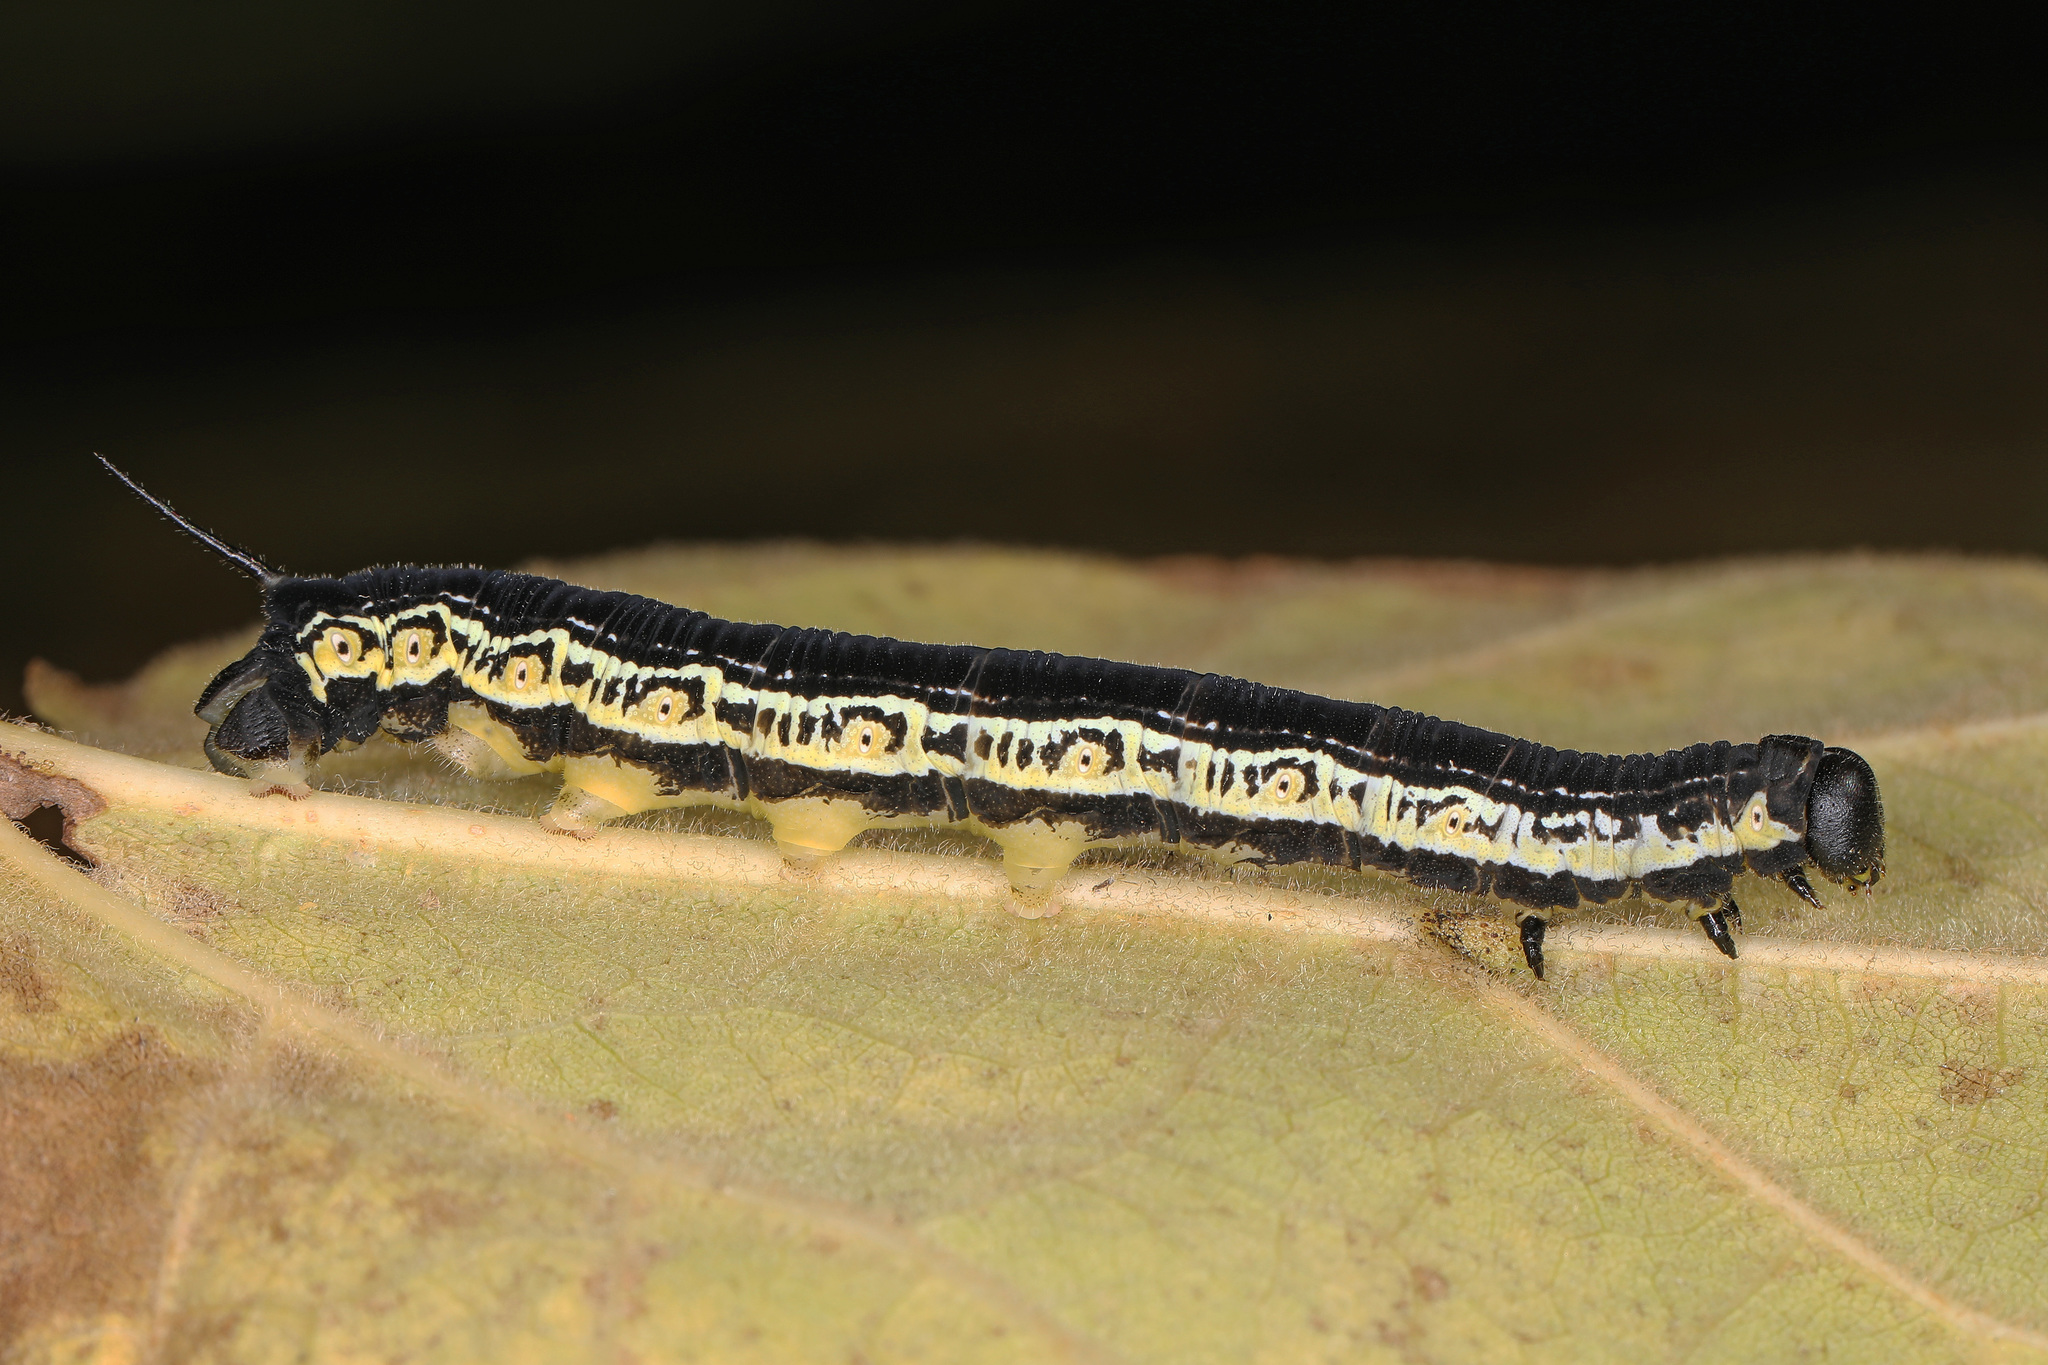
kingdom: Animalia
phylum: Arthropoda
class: Insecta
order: Lepidoptera
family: Sphingidae
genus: Ceratomia
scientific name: Ceratomia catalpae
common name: Catalpa hornworm
